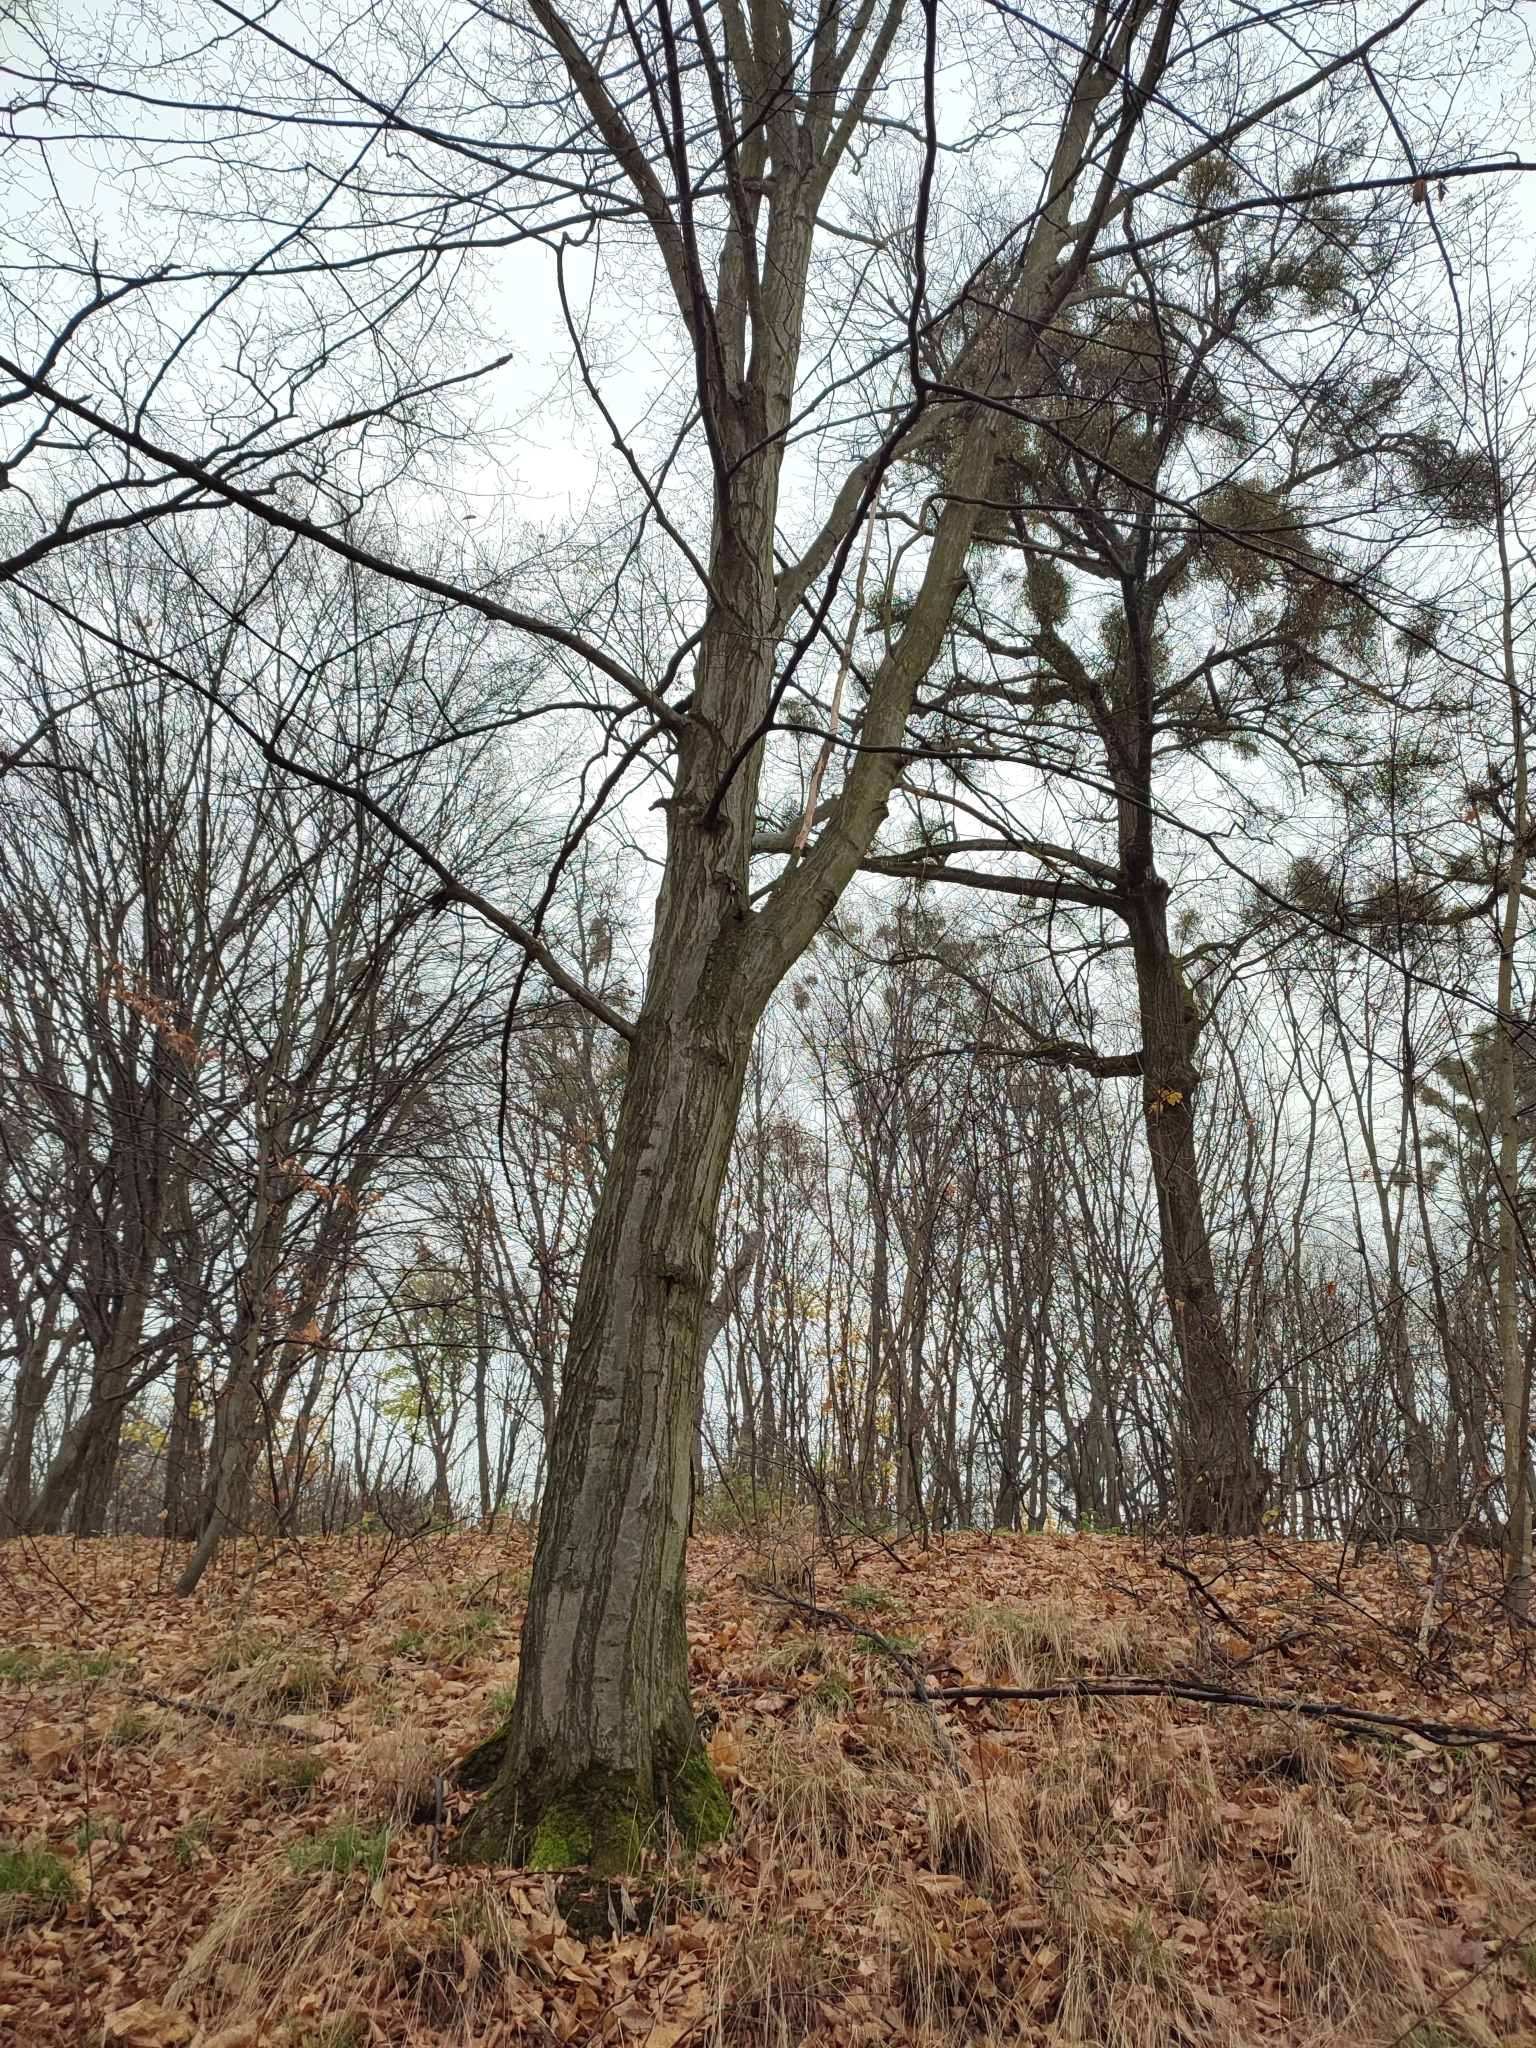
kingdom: Plantae
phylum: Tracheophyta
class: Magnoliopsida
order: Fagales
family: Betulaceae
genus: Carpinus
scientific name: Carpinus betulus
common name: Hornbeam
